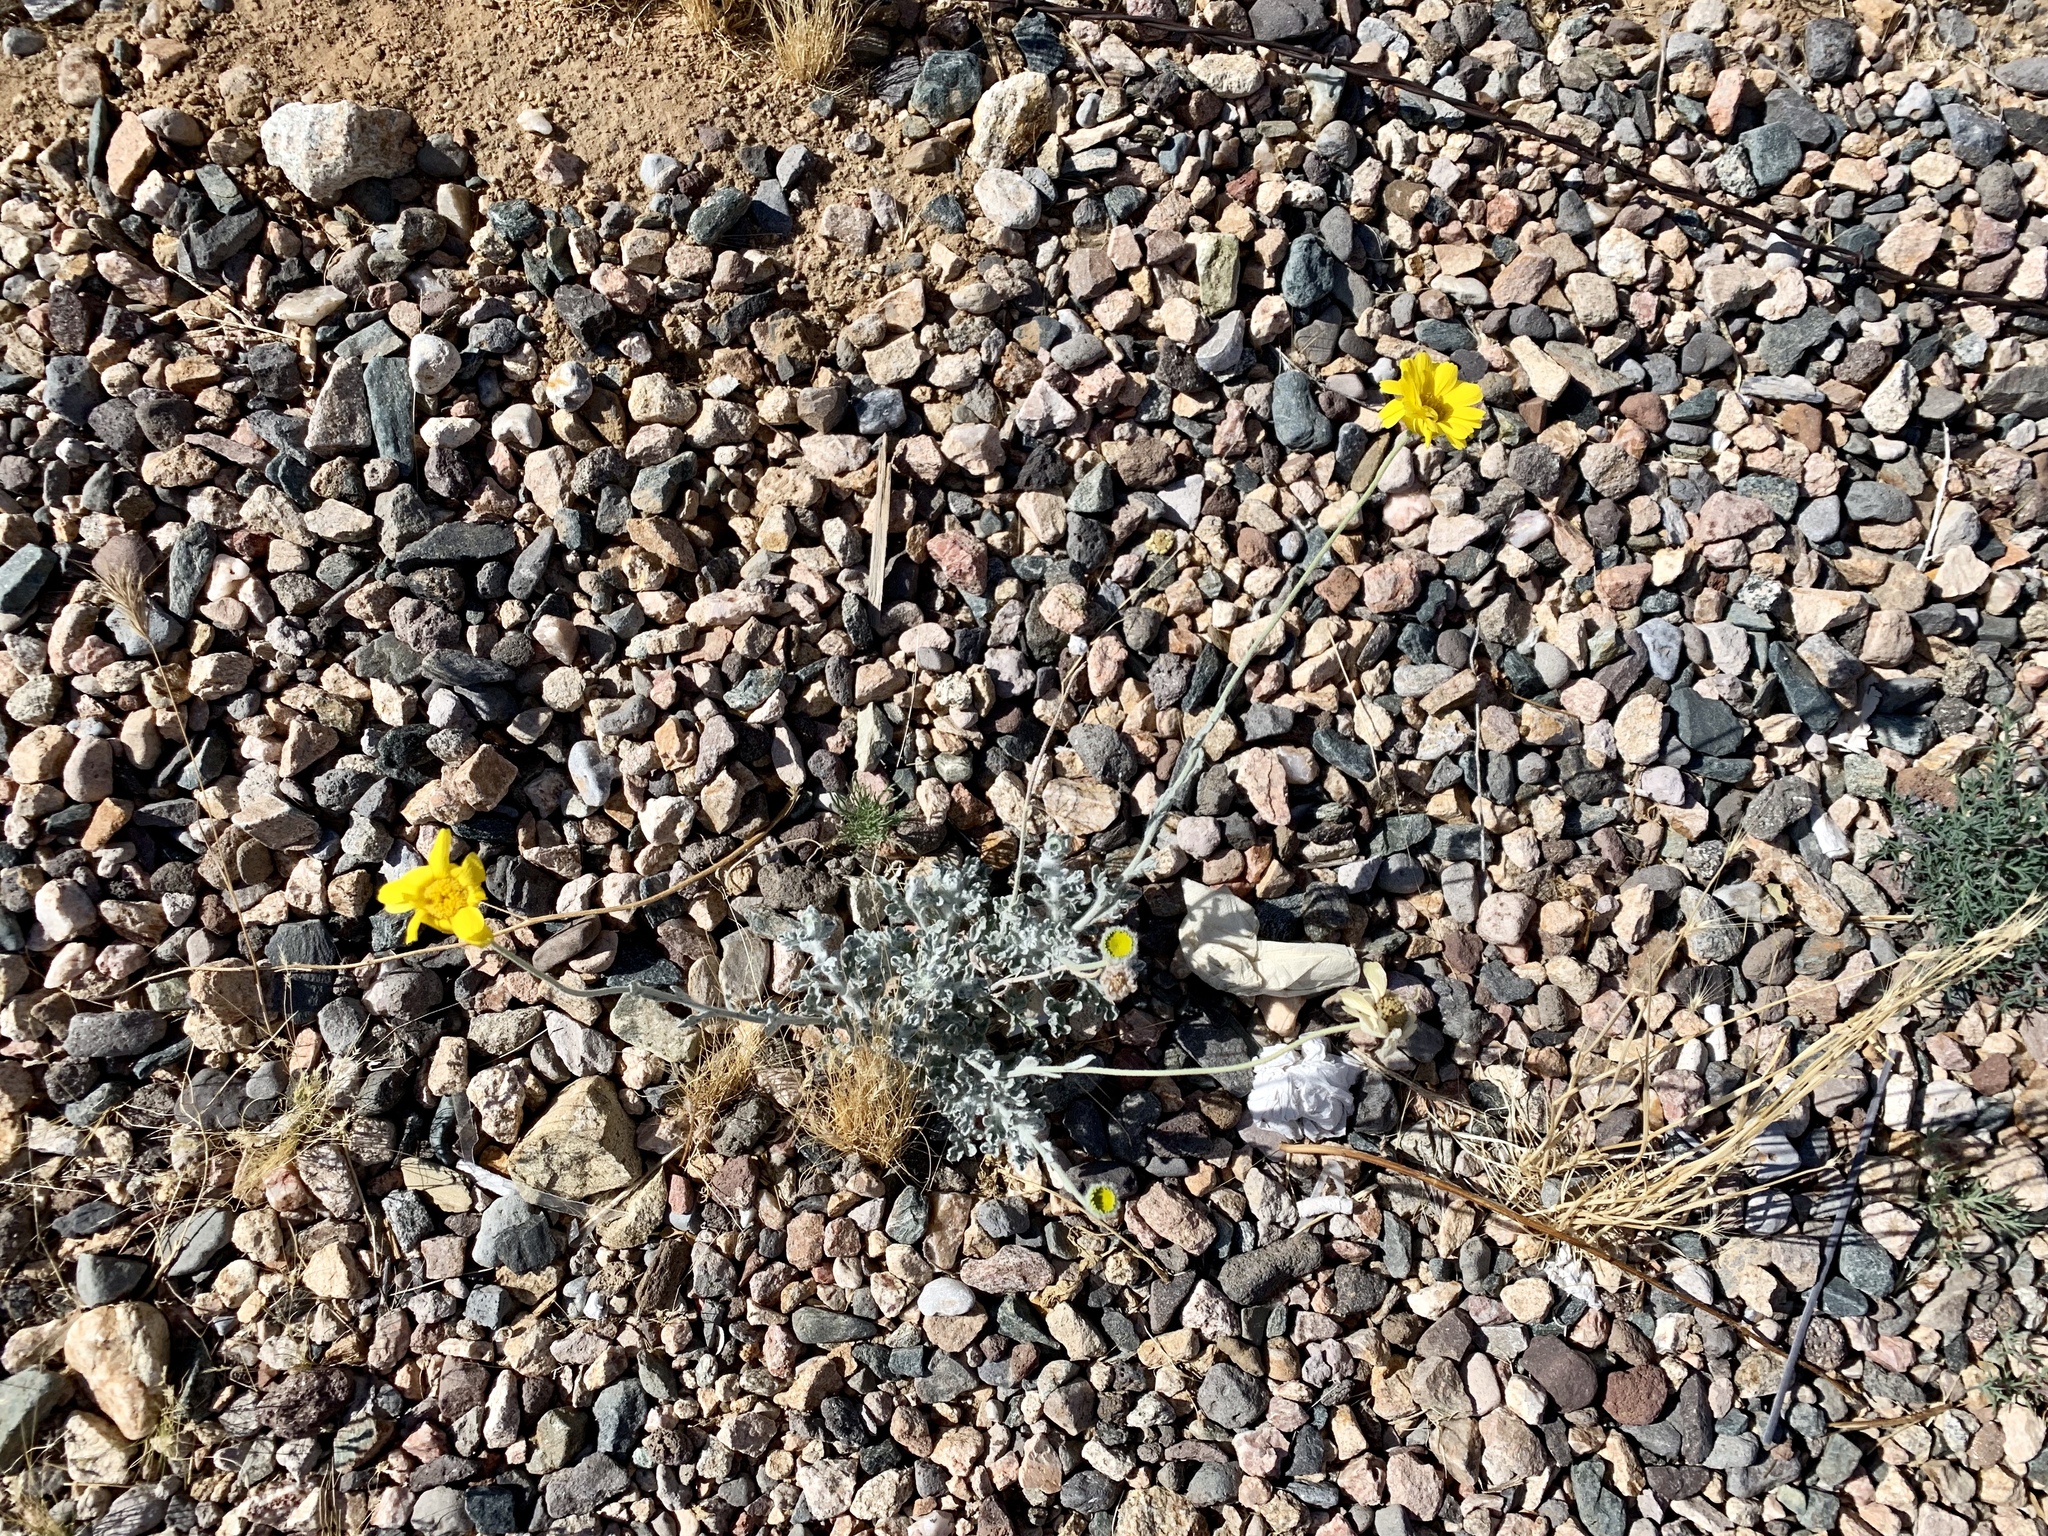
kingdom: Plantae
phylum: Tracheophyta
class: Magnoliopsida
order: Asterales
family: Asteraceae
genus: Baileya
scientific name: Baileya multiradiata
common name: Desert-marigold
